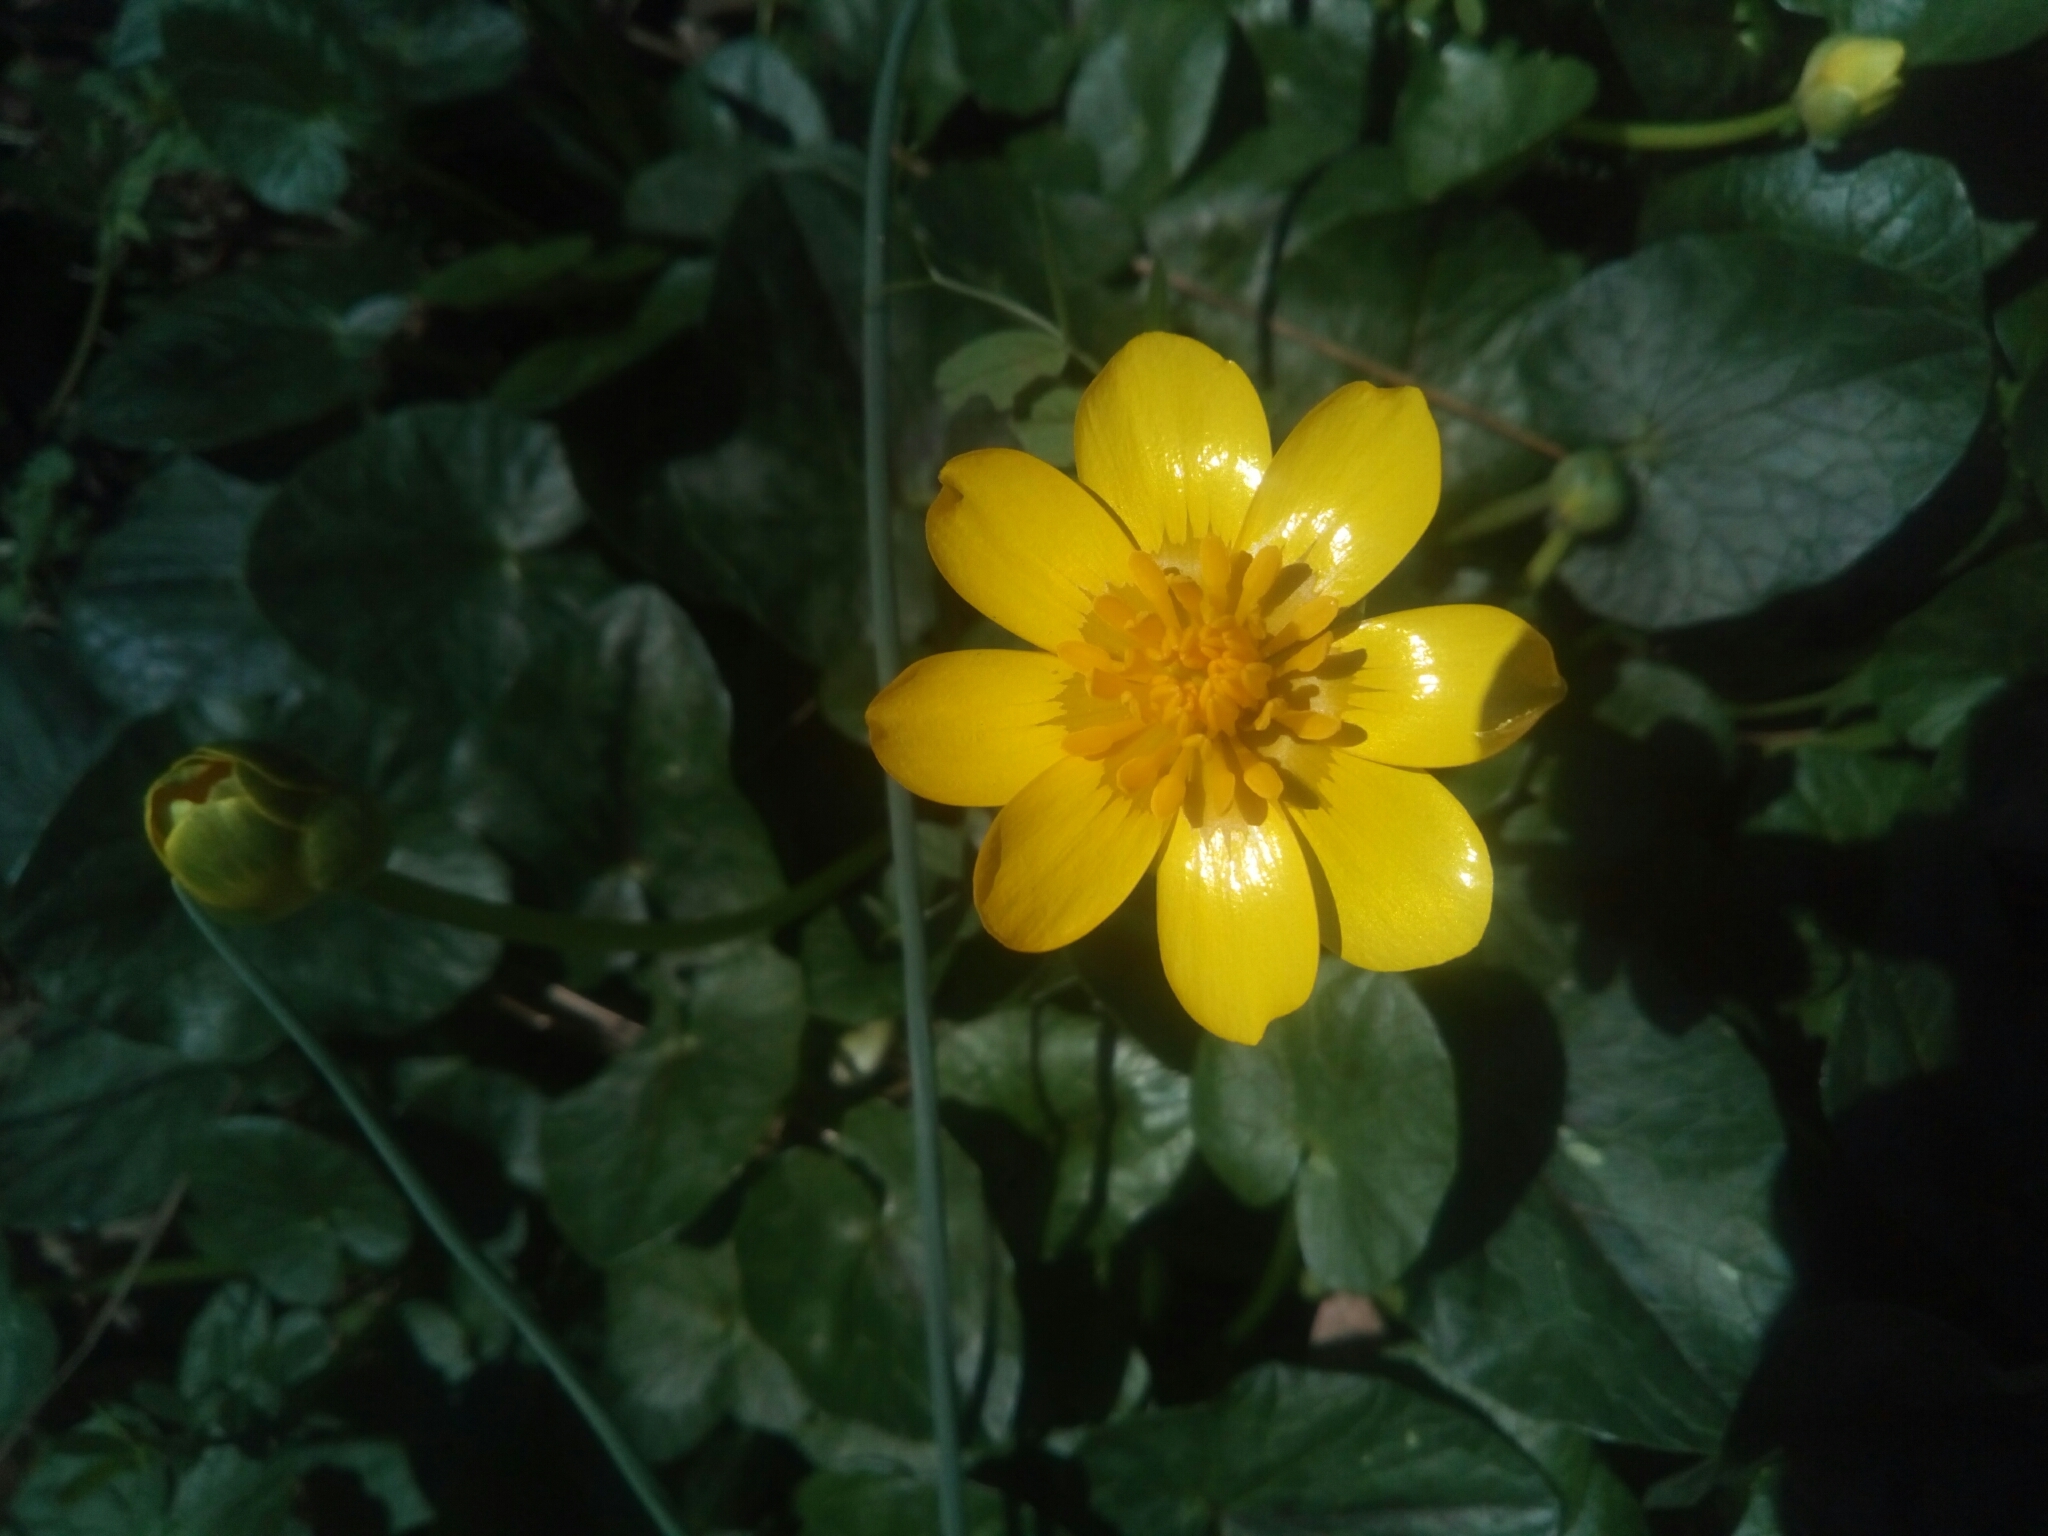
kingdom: Plantae
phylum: Tracheophyta
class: Magnoliopsida
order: Ranunculales
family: Ranunculaceae
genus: Ficaria
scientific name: Ficaria verna
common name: Lesser celandine
